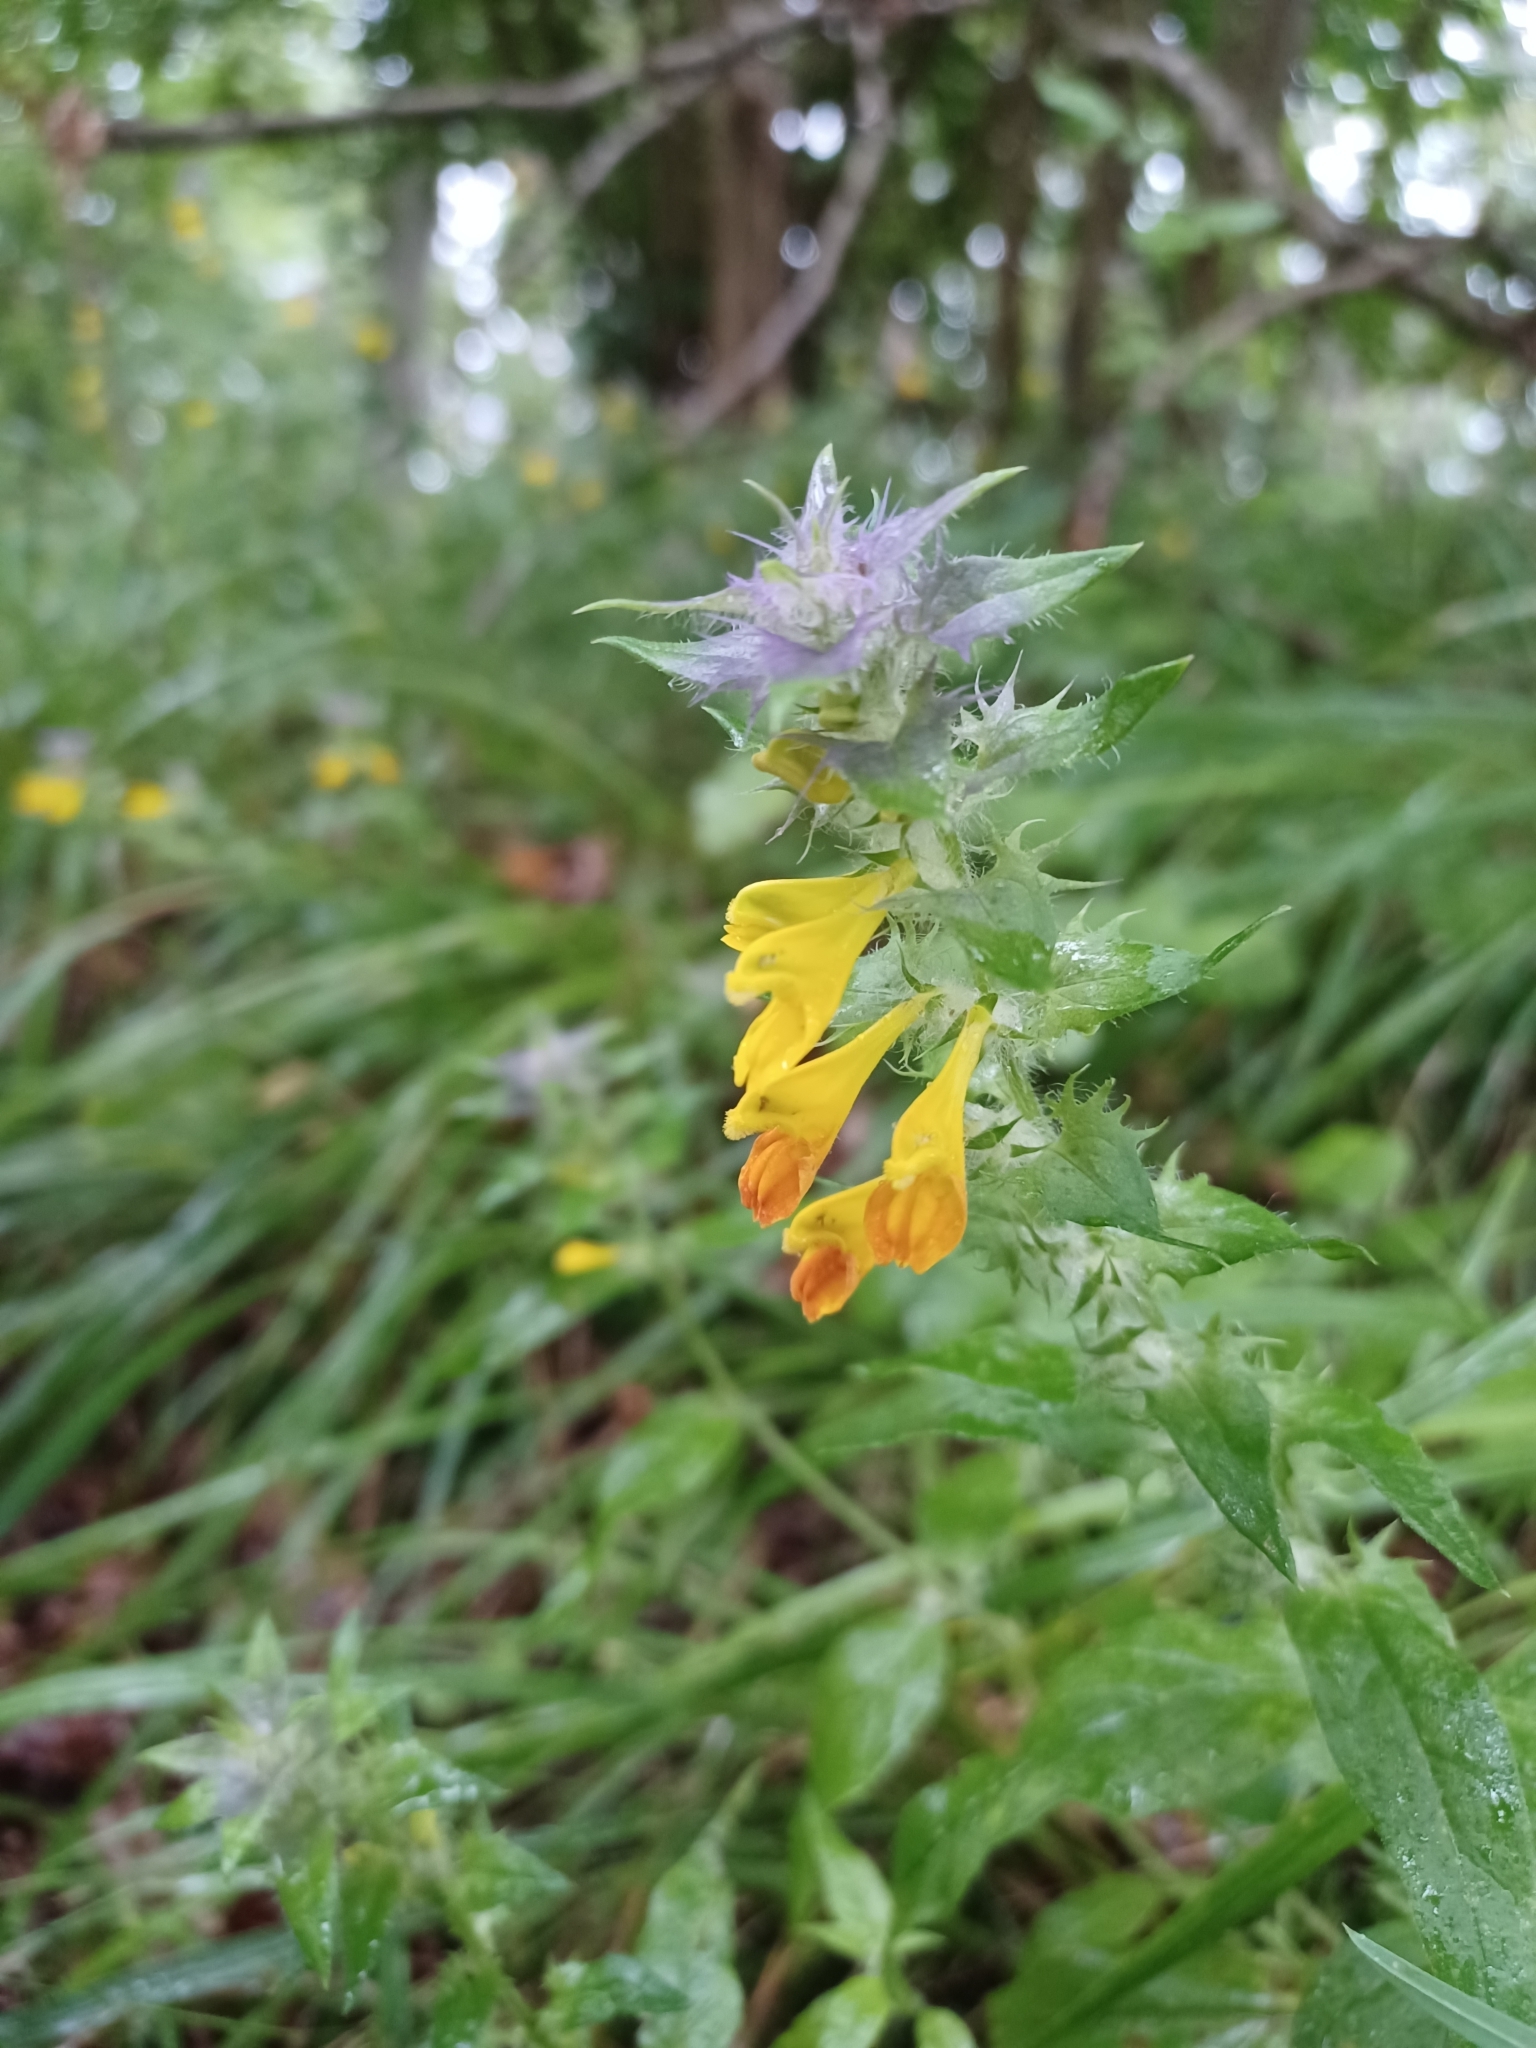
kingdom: Plantae
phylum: Tracheophyta
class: Magnoliopsida
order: Lamiales
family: Orobanchaceae
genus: Melampyrum
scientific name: Melampyrum nemorosum
